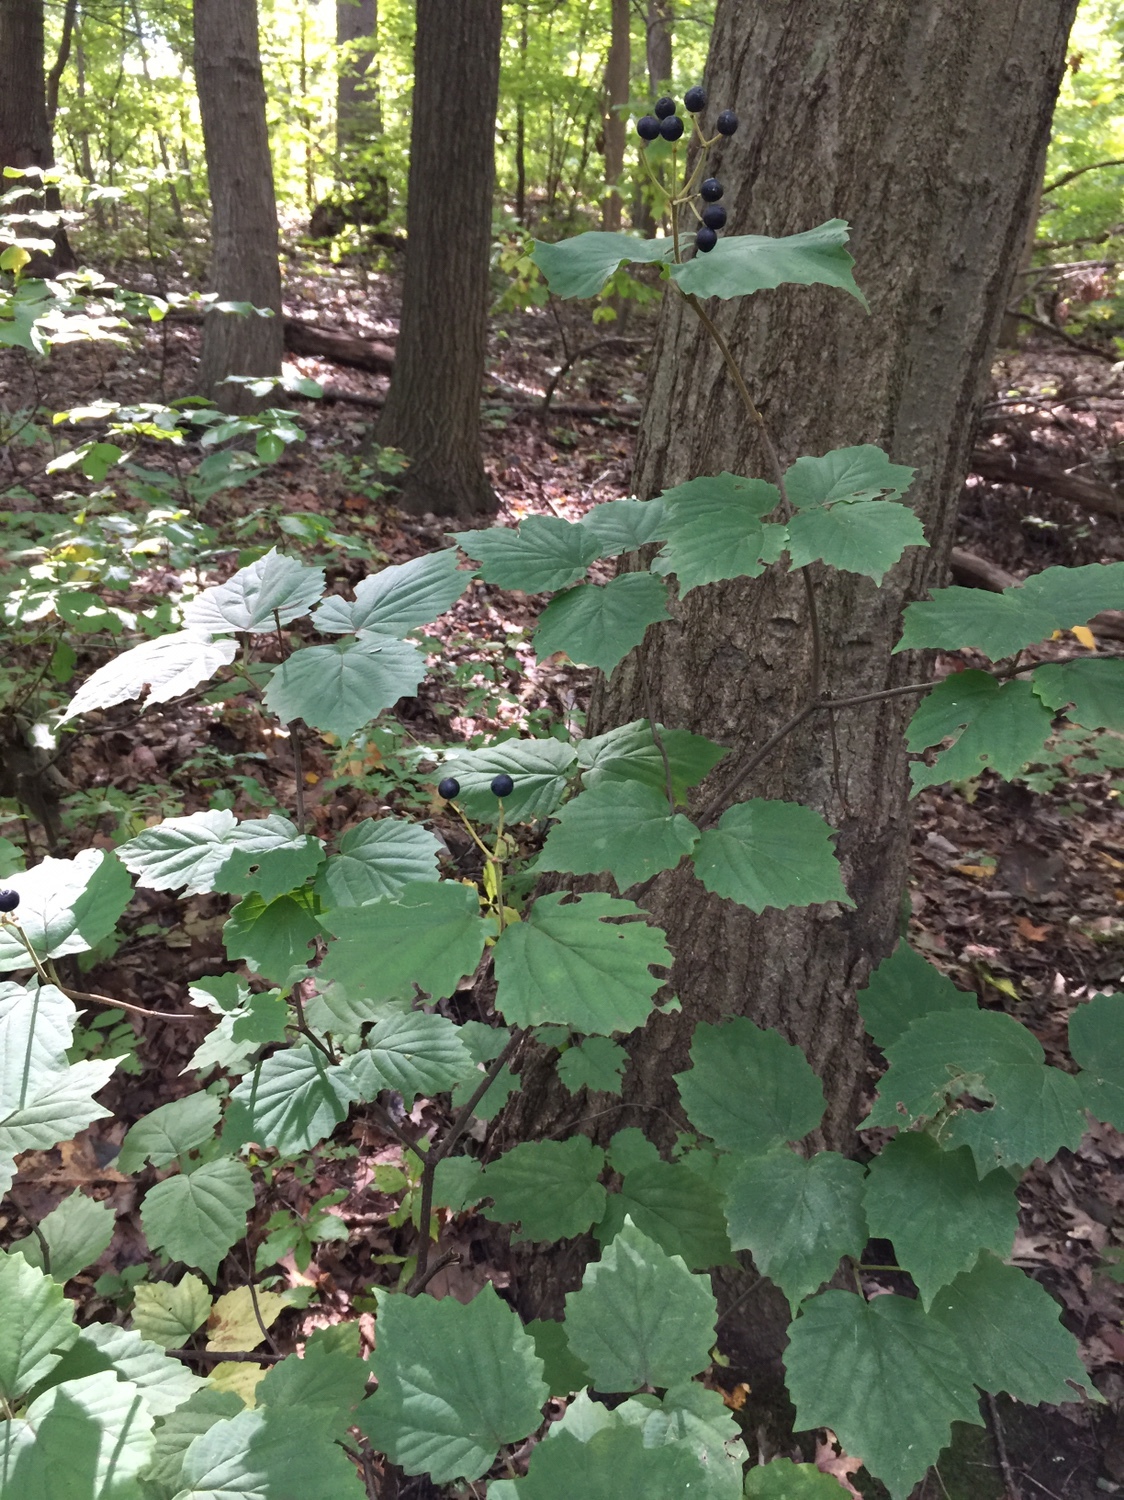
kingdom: Plantae
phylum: Tracheophyta
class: Magnoliopsida
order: Dipsacales
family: Viburnaceae
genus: Viburnum
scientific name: Viburnum acerifolium
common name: Dockmackie
